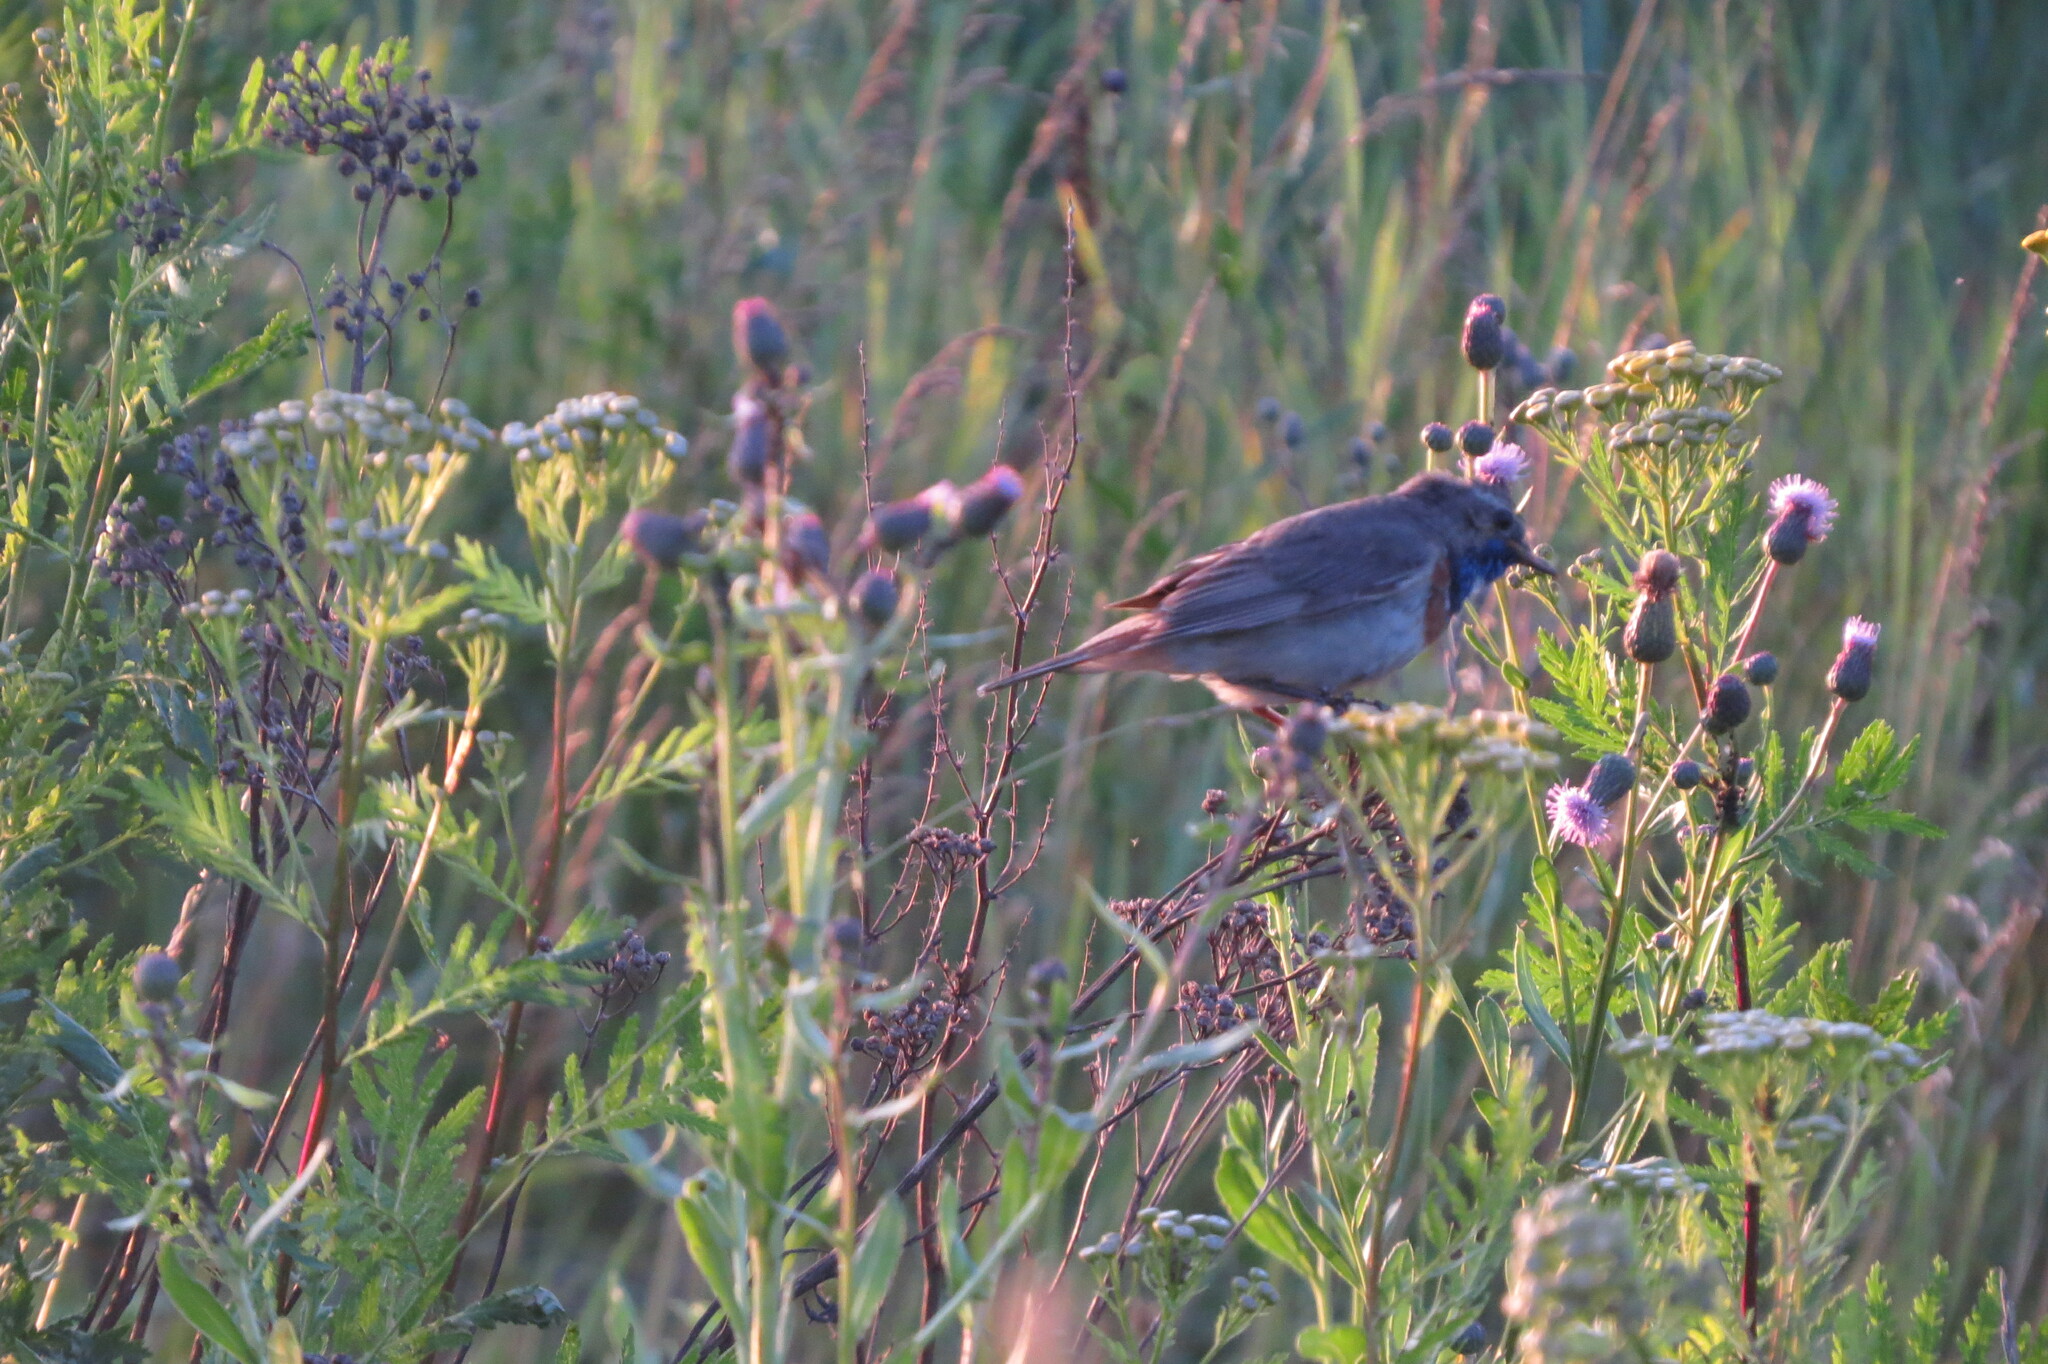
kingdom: Animalia
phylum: Chordata
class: Aves
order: Passeriformes
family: Muscicapidae
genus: Luscinia
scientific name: Luscinia svecica
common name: Bluethroat
